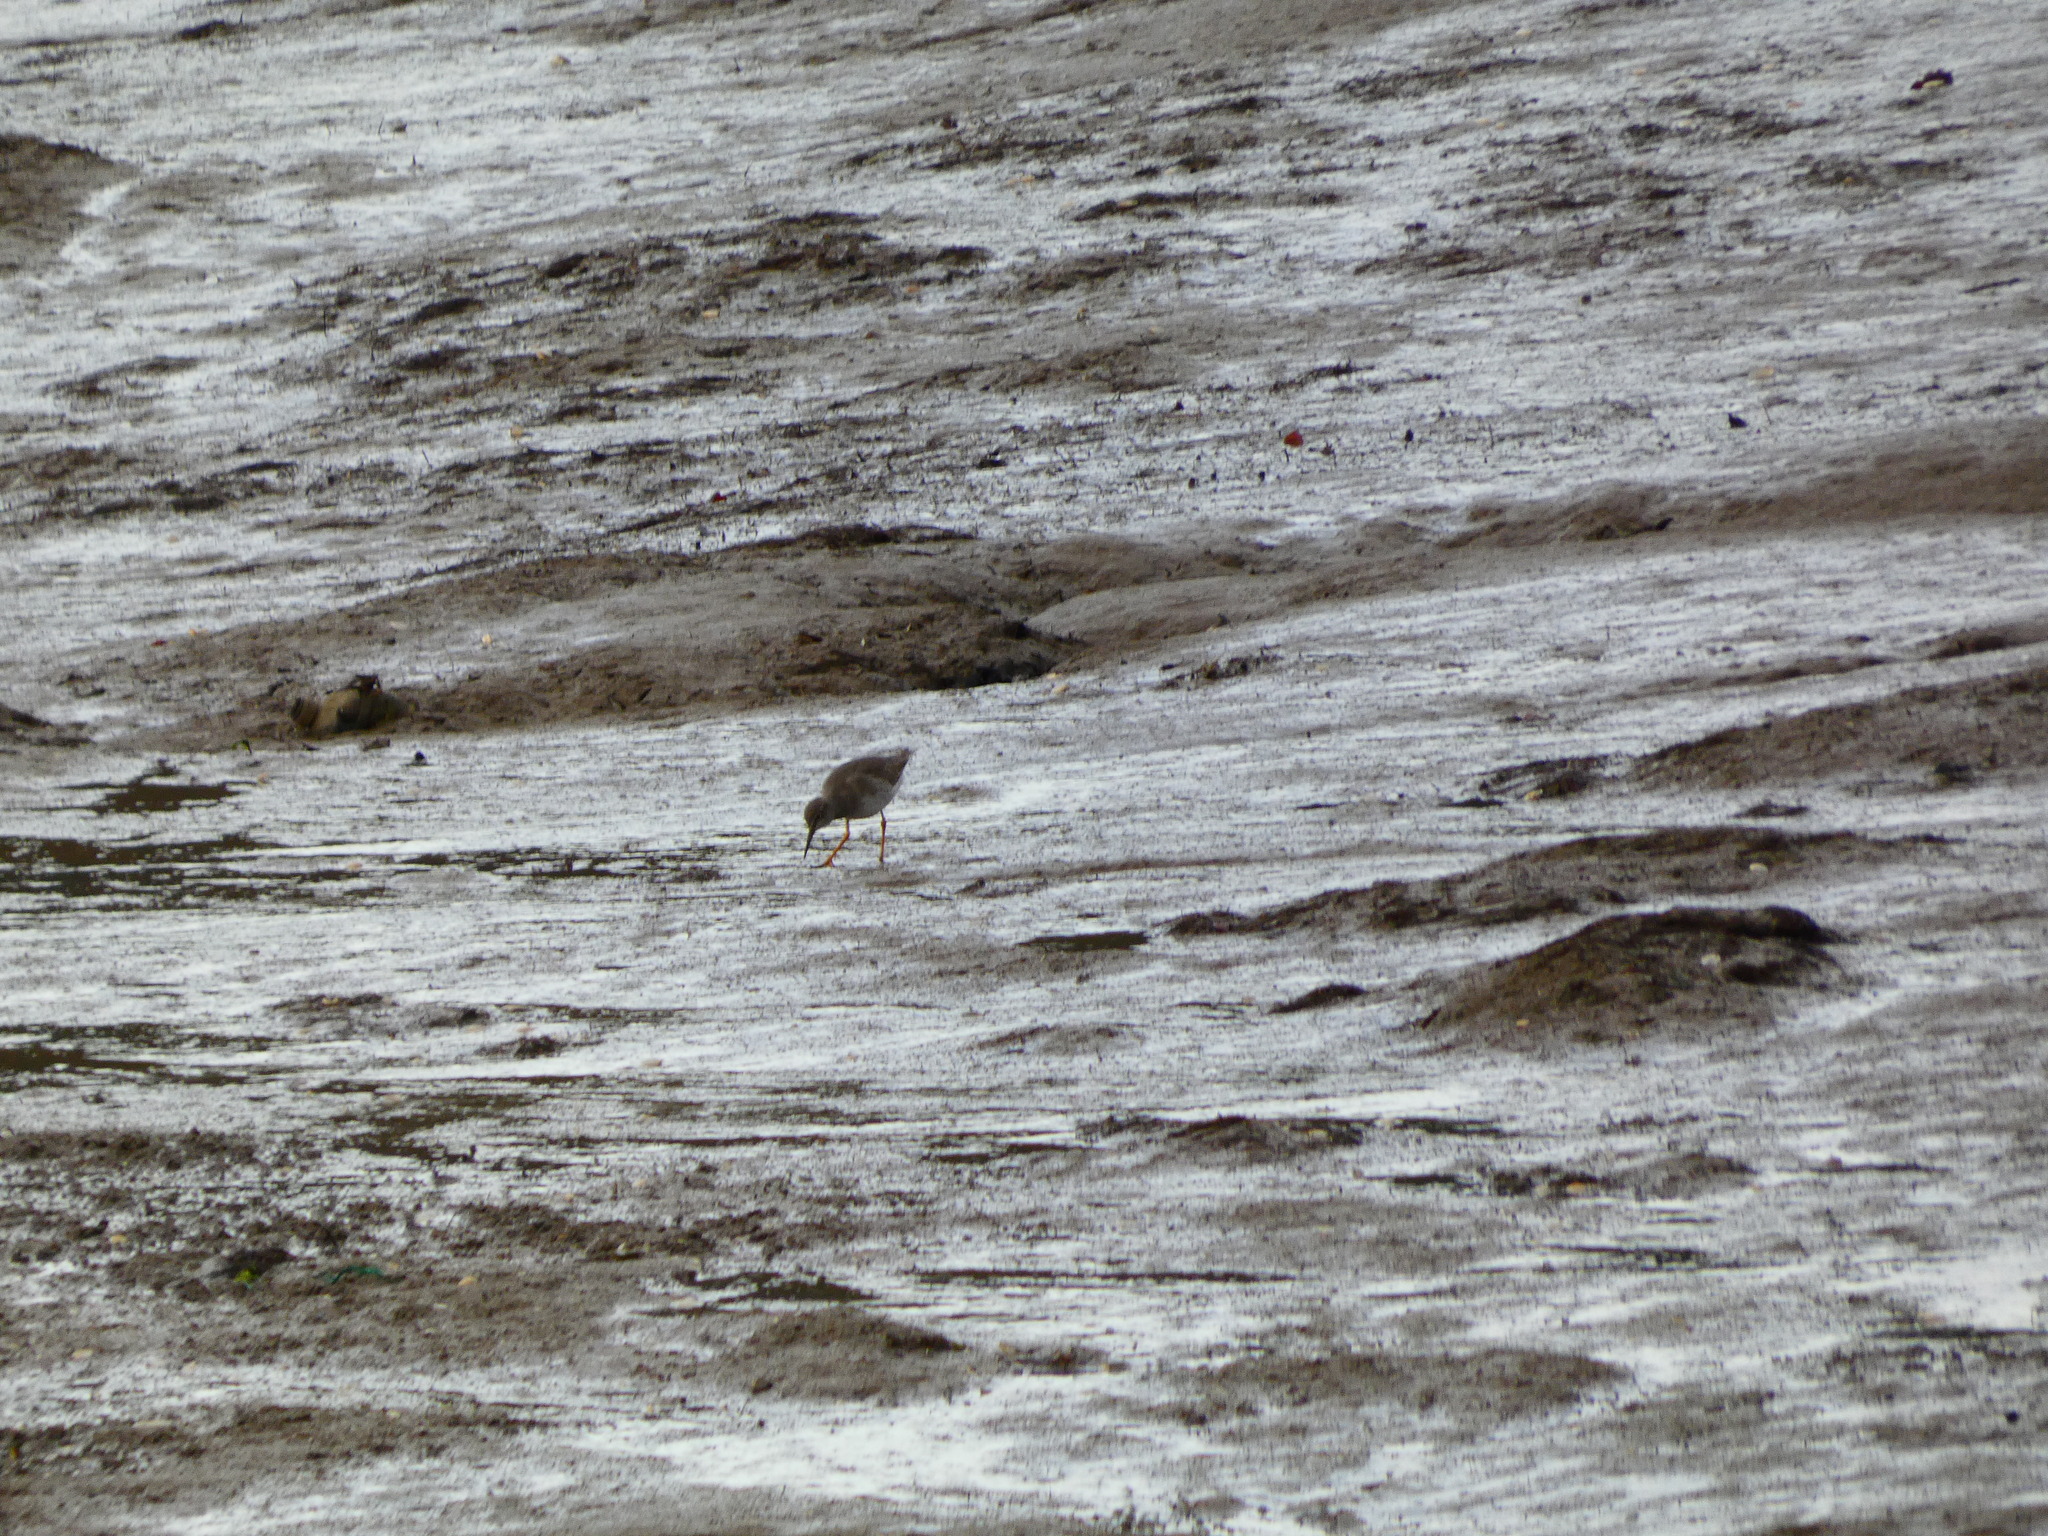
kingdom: Animalia
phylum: Chordata
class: Aves
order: Charadriiformes
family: Scolopacidae
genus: Tringa
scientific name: Tringa totanus
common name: Common redshank
